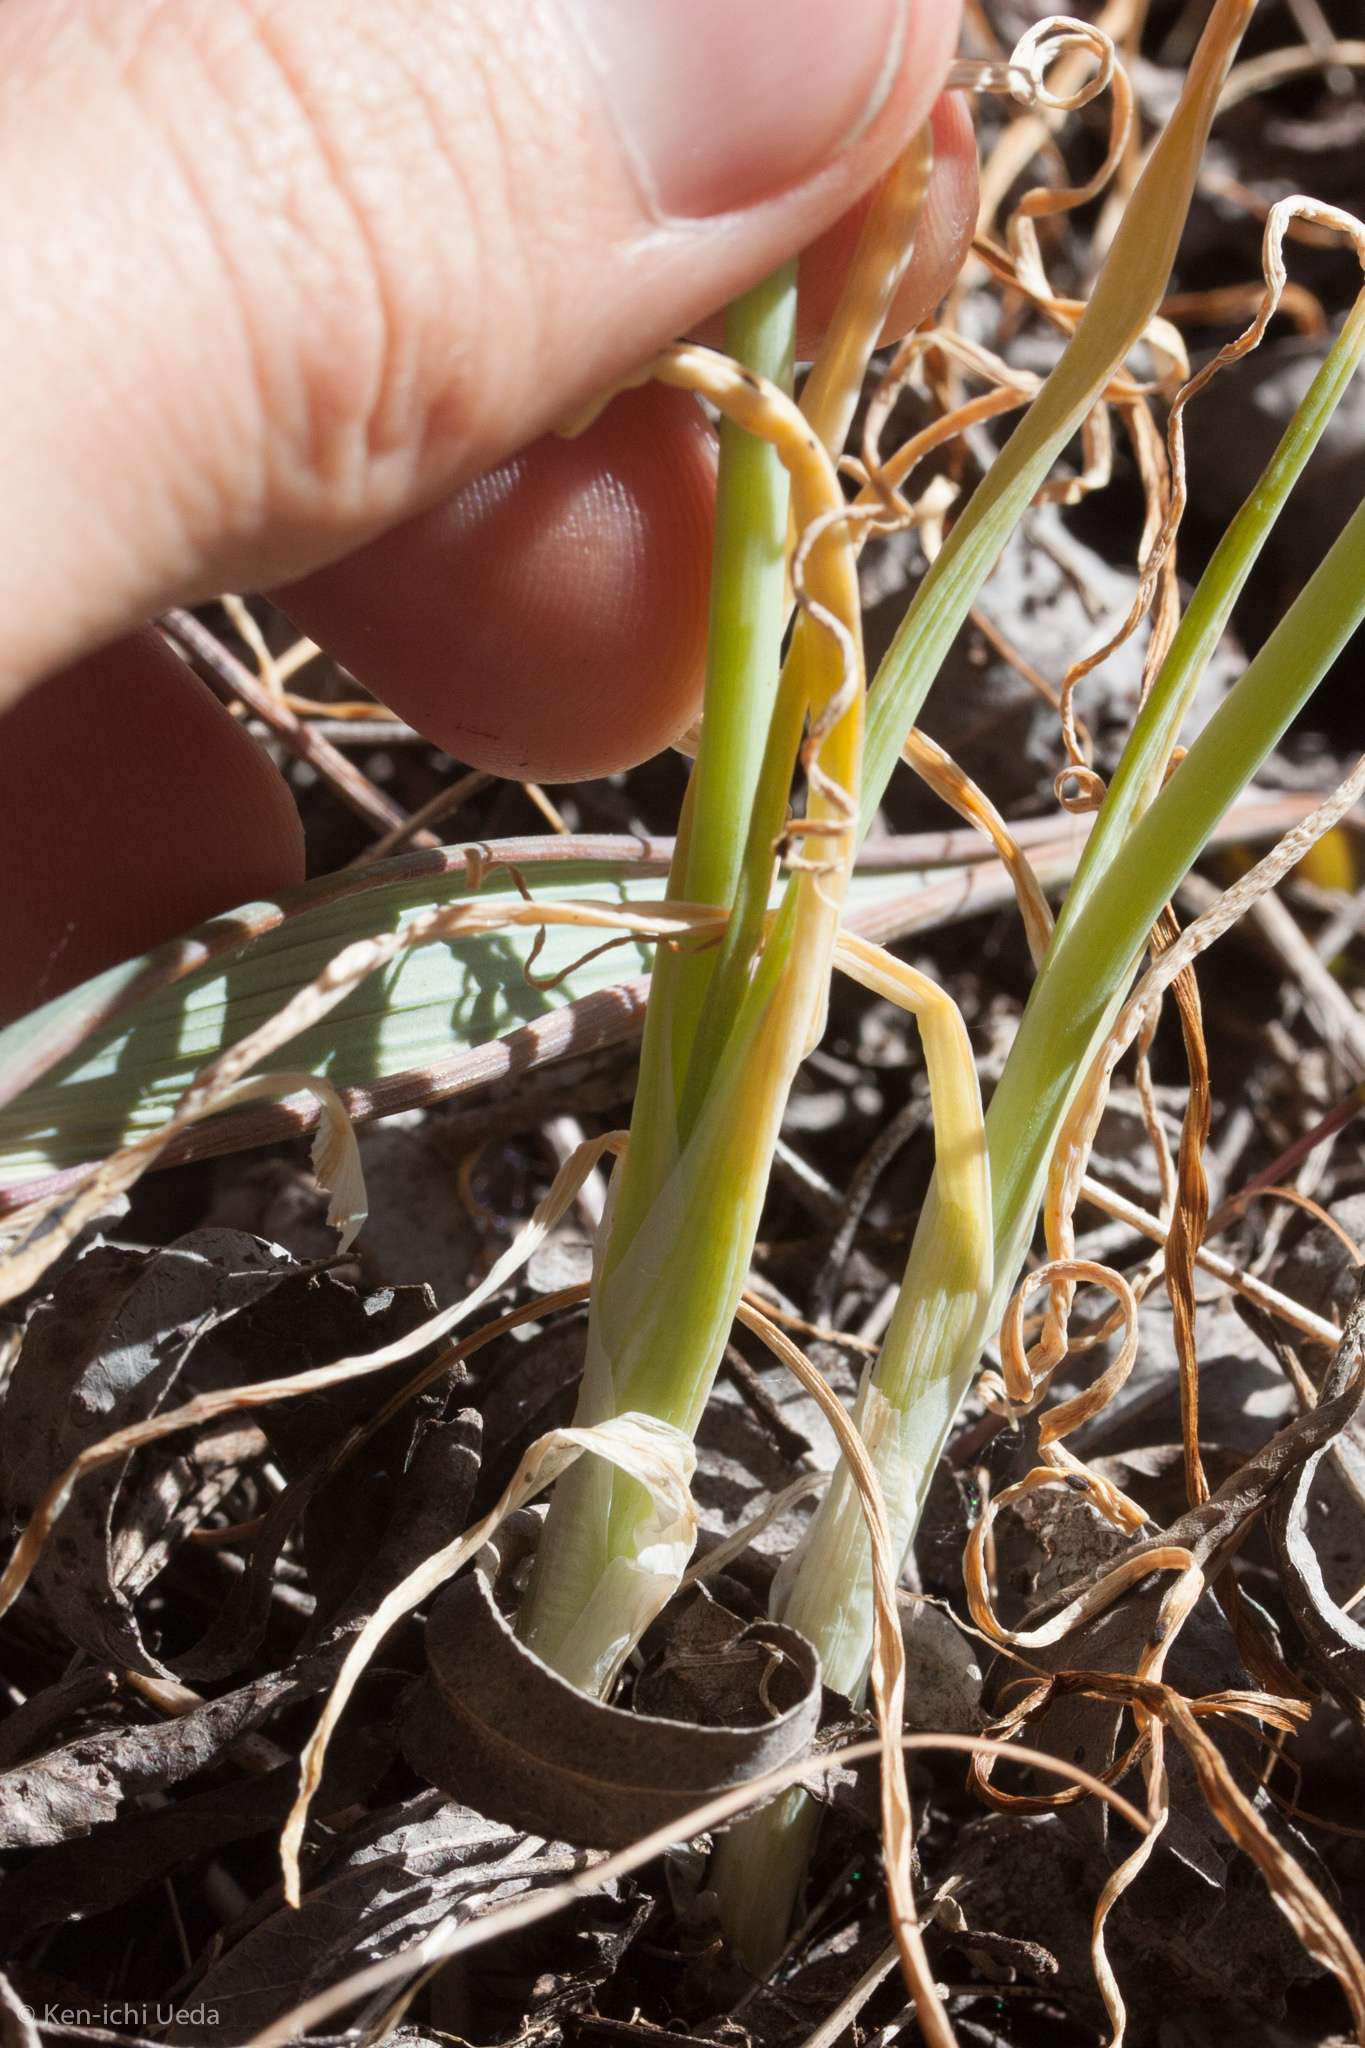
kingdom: Plantae
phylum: Tracheophyta
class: Liliopsida
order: Asparagales
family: Amaryllidaceae
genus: Allium
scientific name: Allium haematochiton
